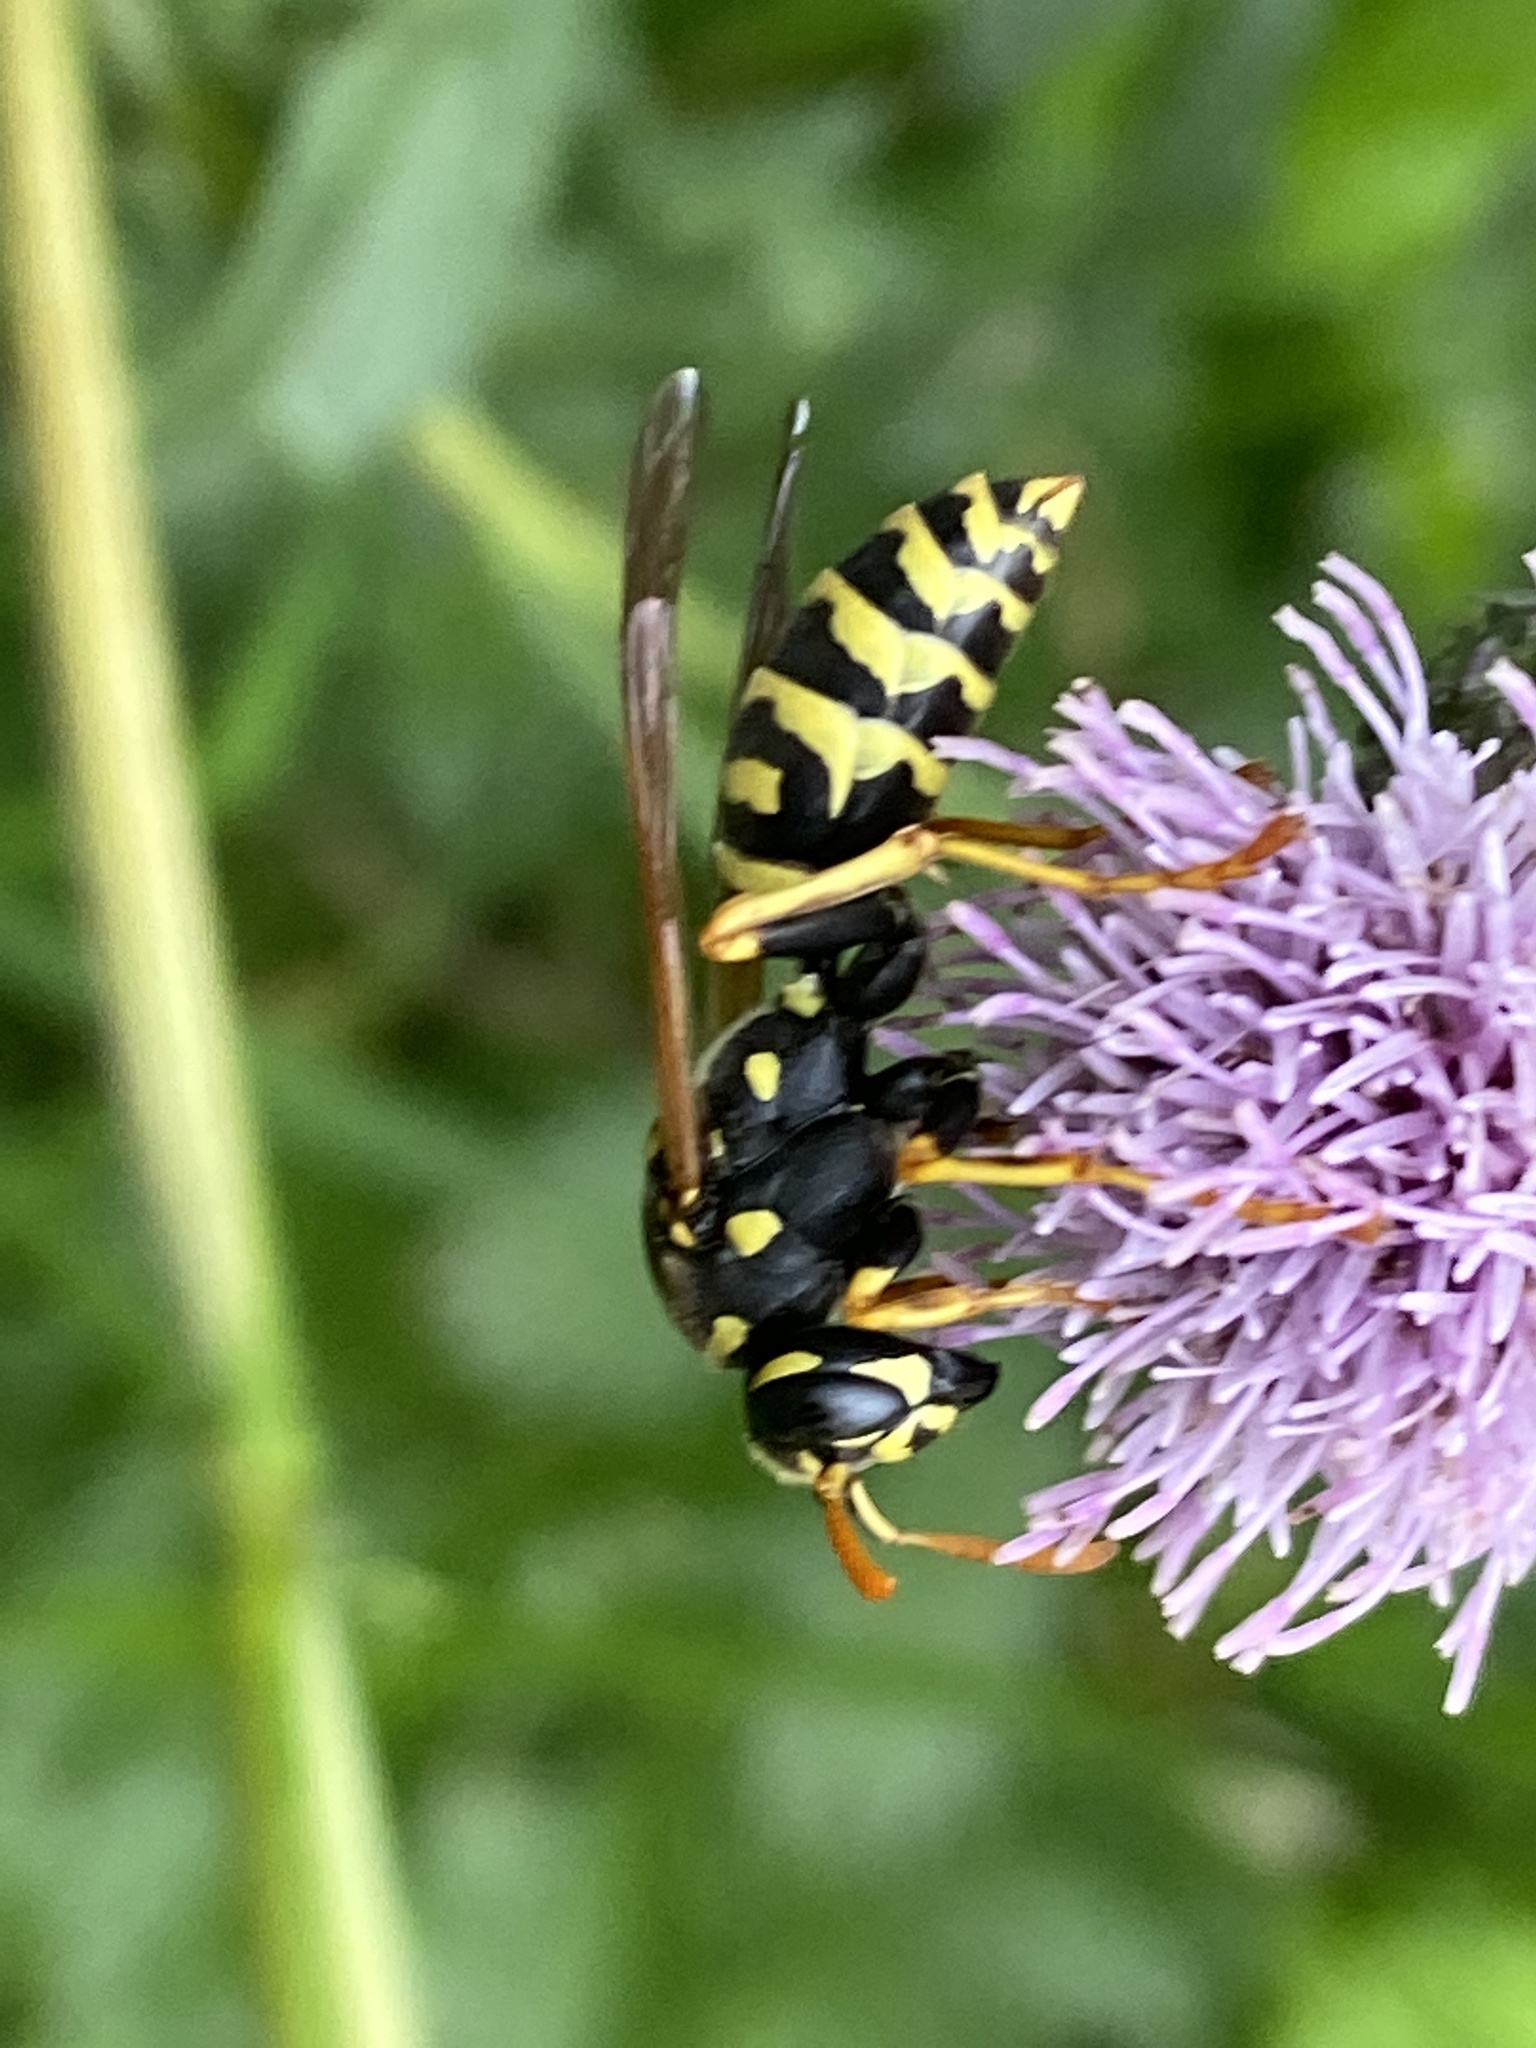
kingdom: Animalia
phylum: Arthropoda
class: Insecta
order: Hymenoptera
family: Eumenidae
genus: Polistes
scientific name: Polistes dominula
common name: Paper wasp
